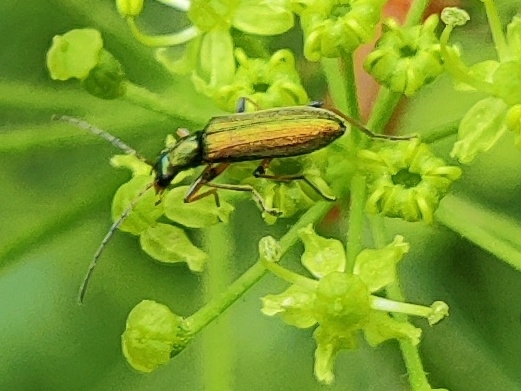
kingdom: Animalia
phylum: Arthropoda
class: Insecta
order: Coleoptera
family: Oedemeridae
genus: Chrysanthia
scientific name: Chrysanthia geniculata
